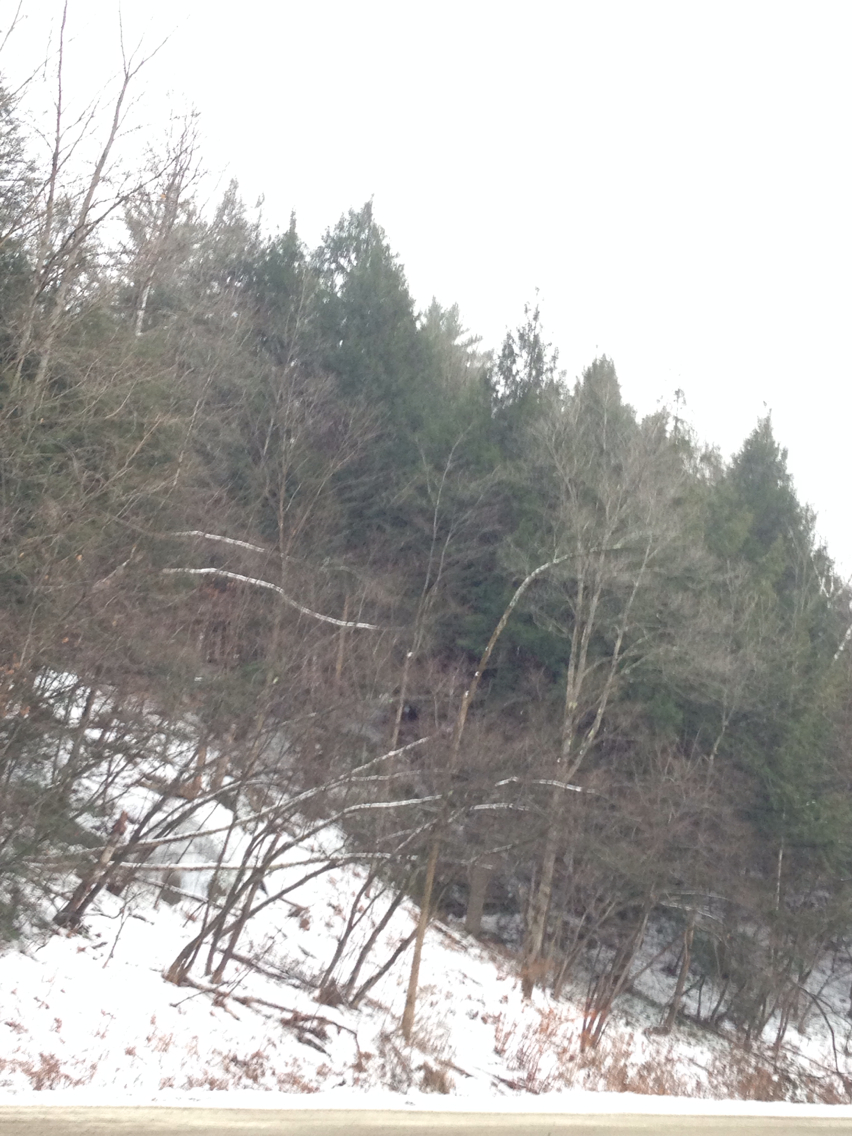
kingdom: Plantae
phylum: Tracheophyta
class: Pinopsida
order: Pinales
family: Pinaceae
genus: Tsuga
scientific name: Tsuga canadensis
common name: Eastern hemlock
